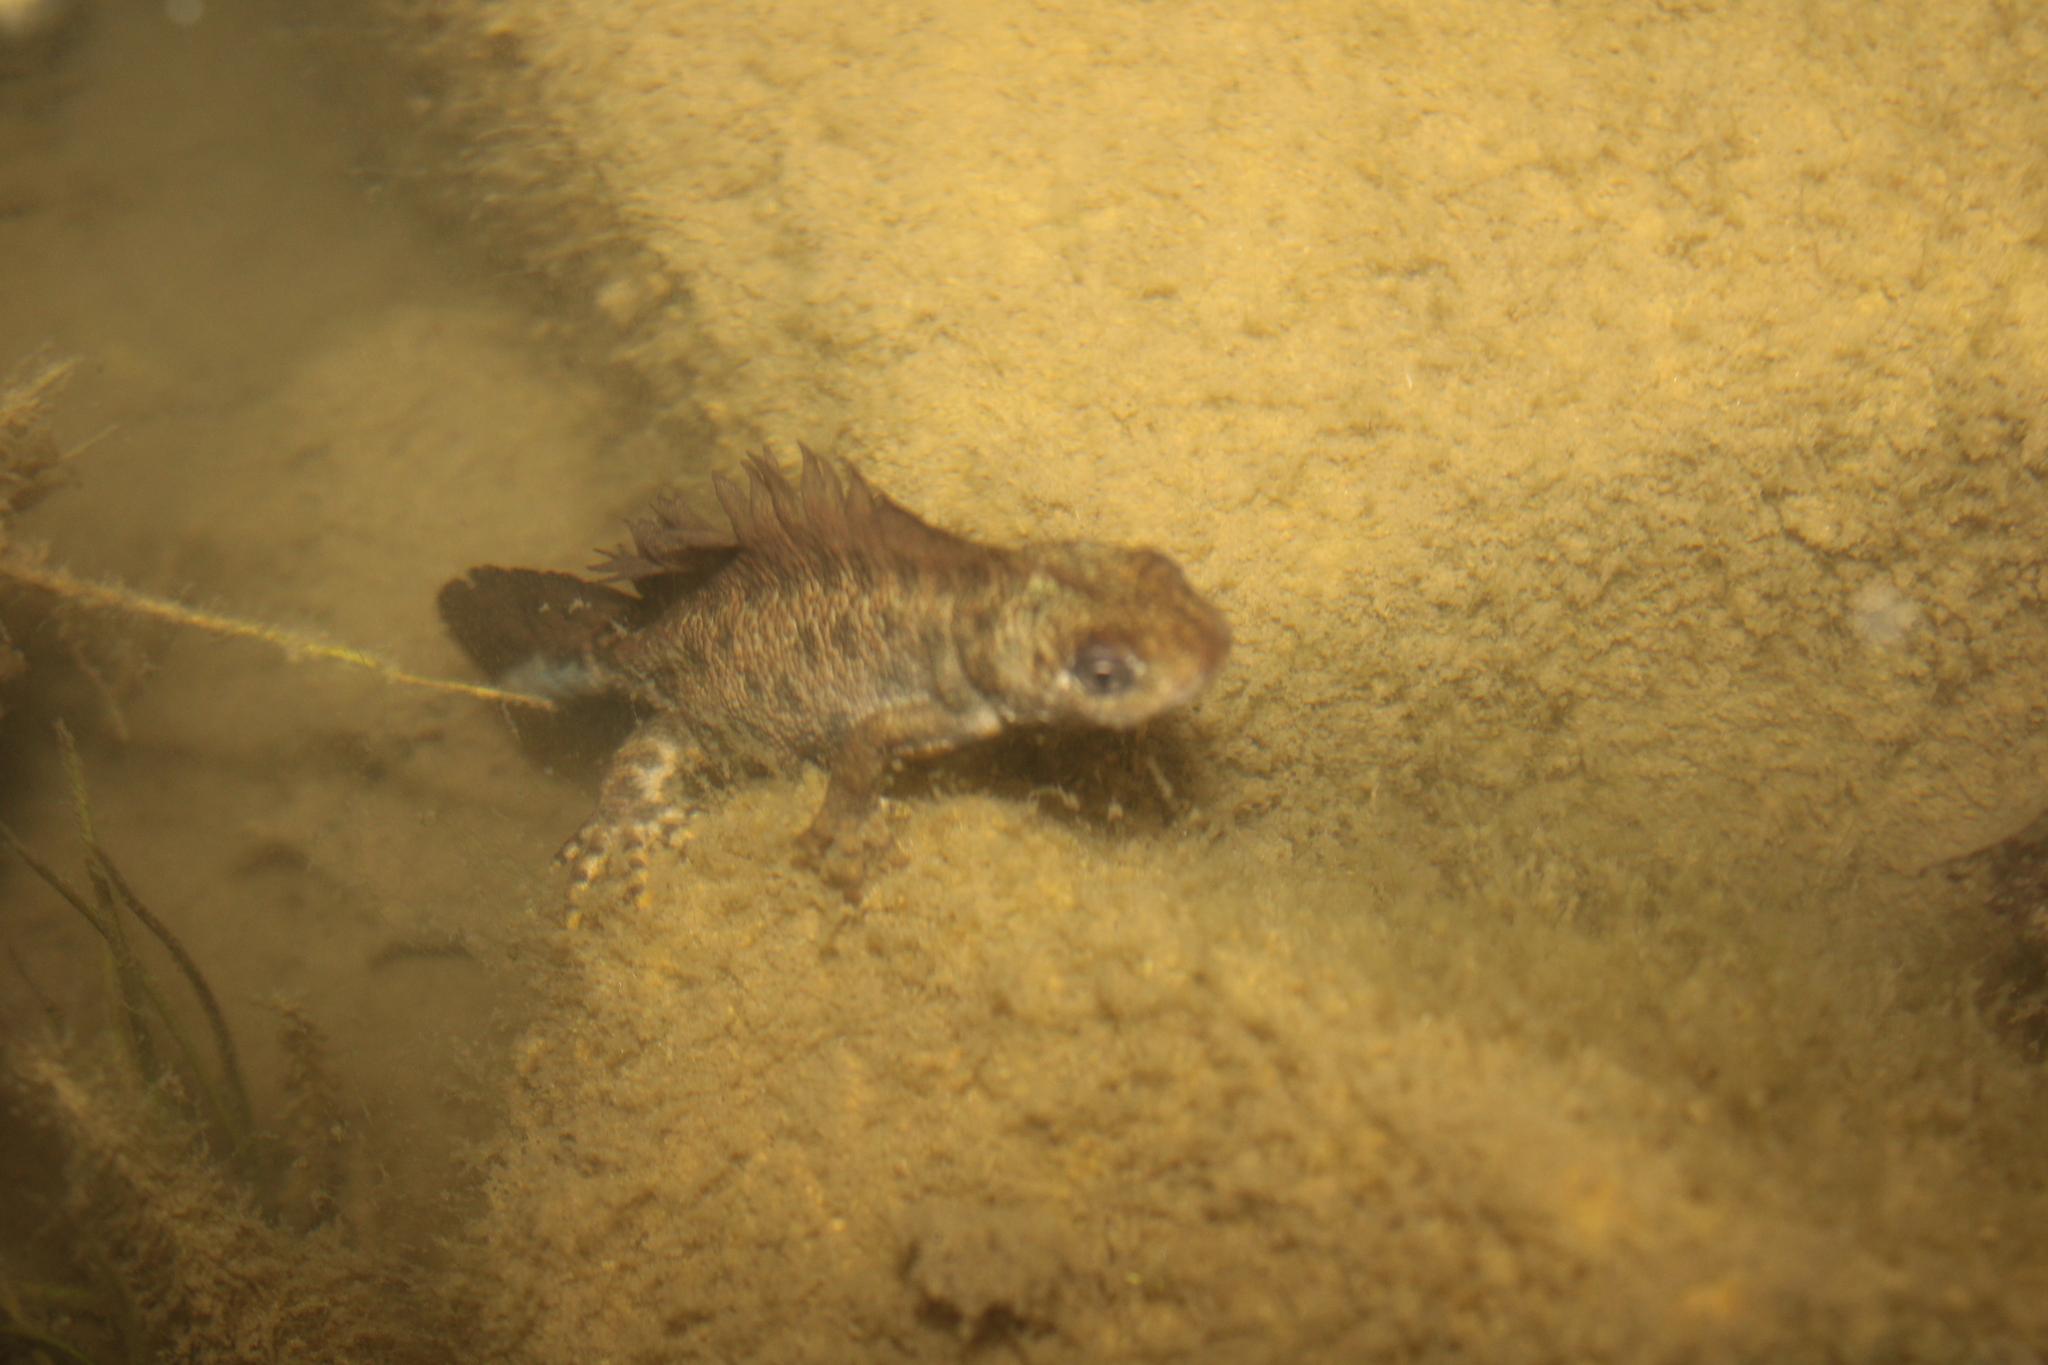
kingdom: Animalia
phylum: Chordata
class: Amphibia
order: Caudata
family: Salamandridae
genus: Triturus
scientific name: Triturus carnifex
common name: Italian crested newt
